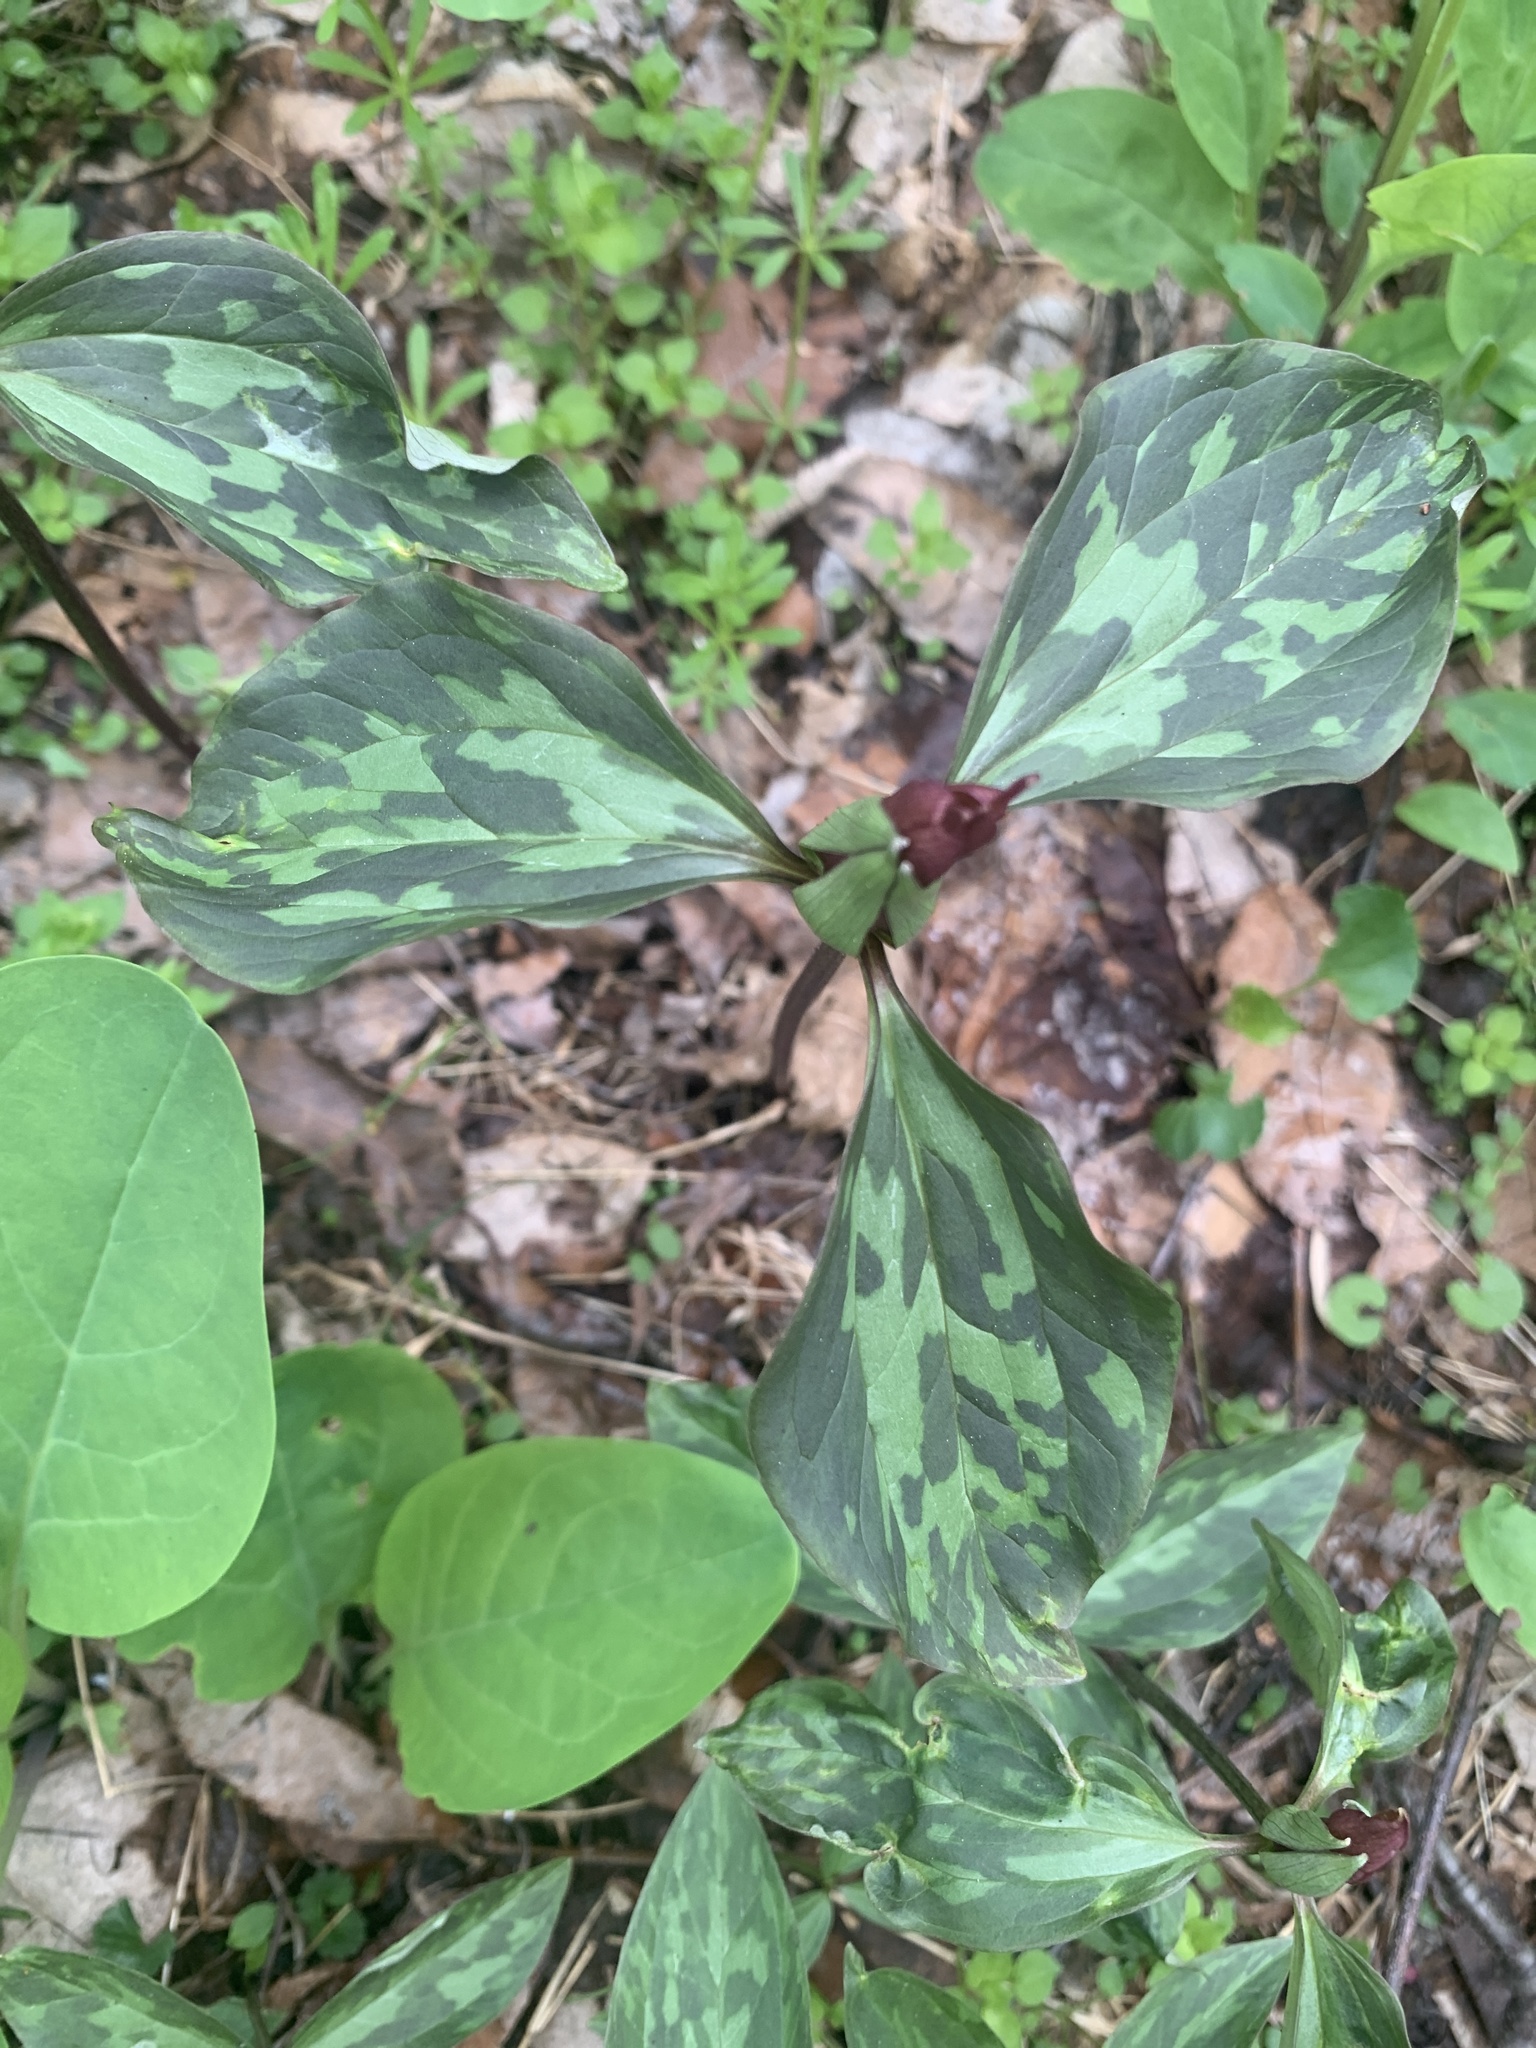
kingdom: Plantae
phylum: Tracheophyta
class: Liliopsida
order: Liliales
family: Melanthiaceae
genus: Trillium
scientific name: Trillium recurvatum
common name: Bloody butcher
